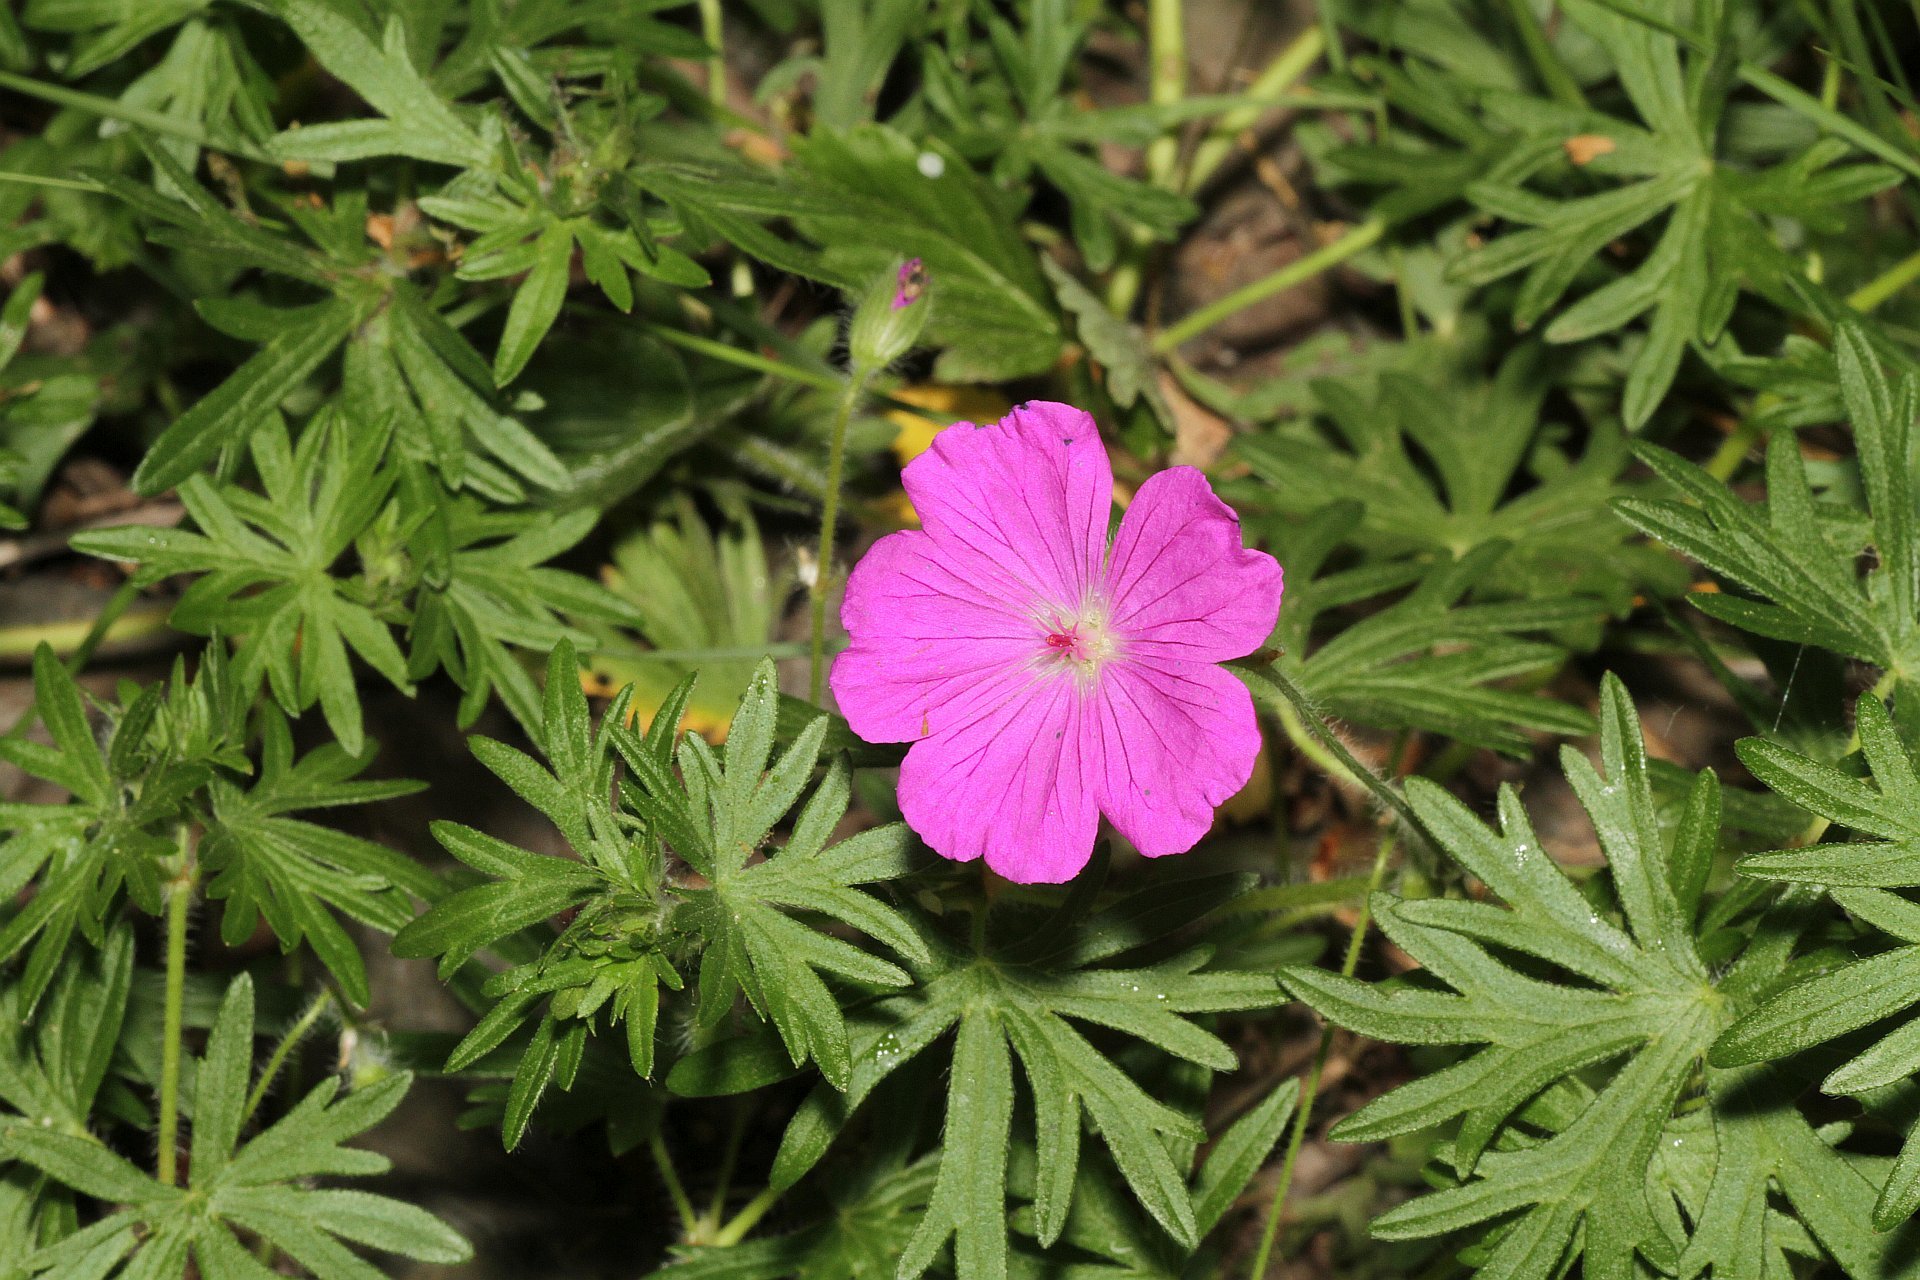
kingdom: Plantae
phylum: Tracheophyta
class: Magnoliopsida
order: Geraniales
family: Geraniaceae
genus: Geranium
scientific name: Geranium sanguineum
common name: Bloody crane's-bill
